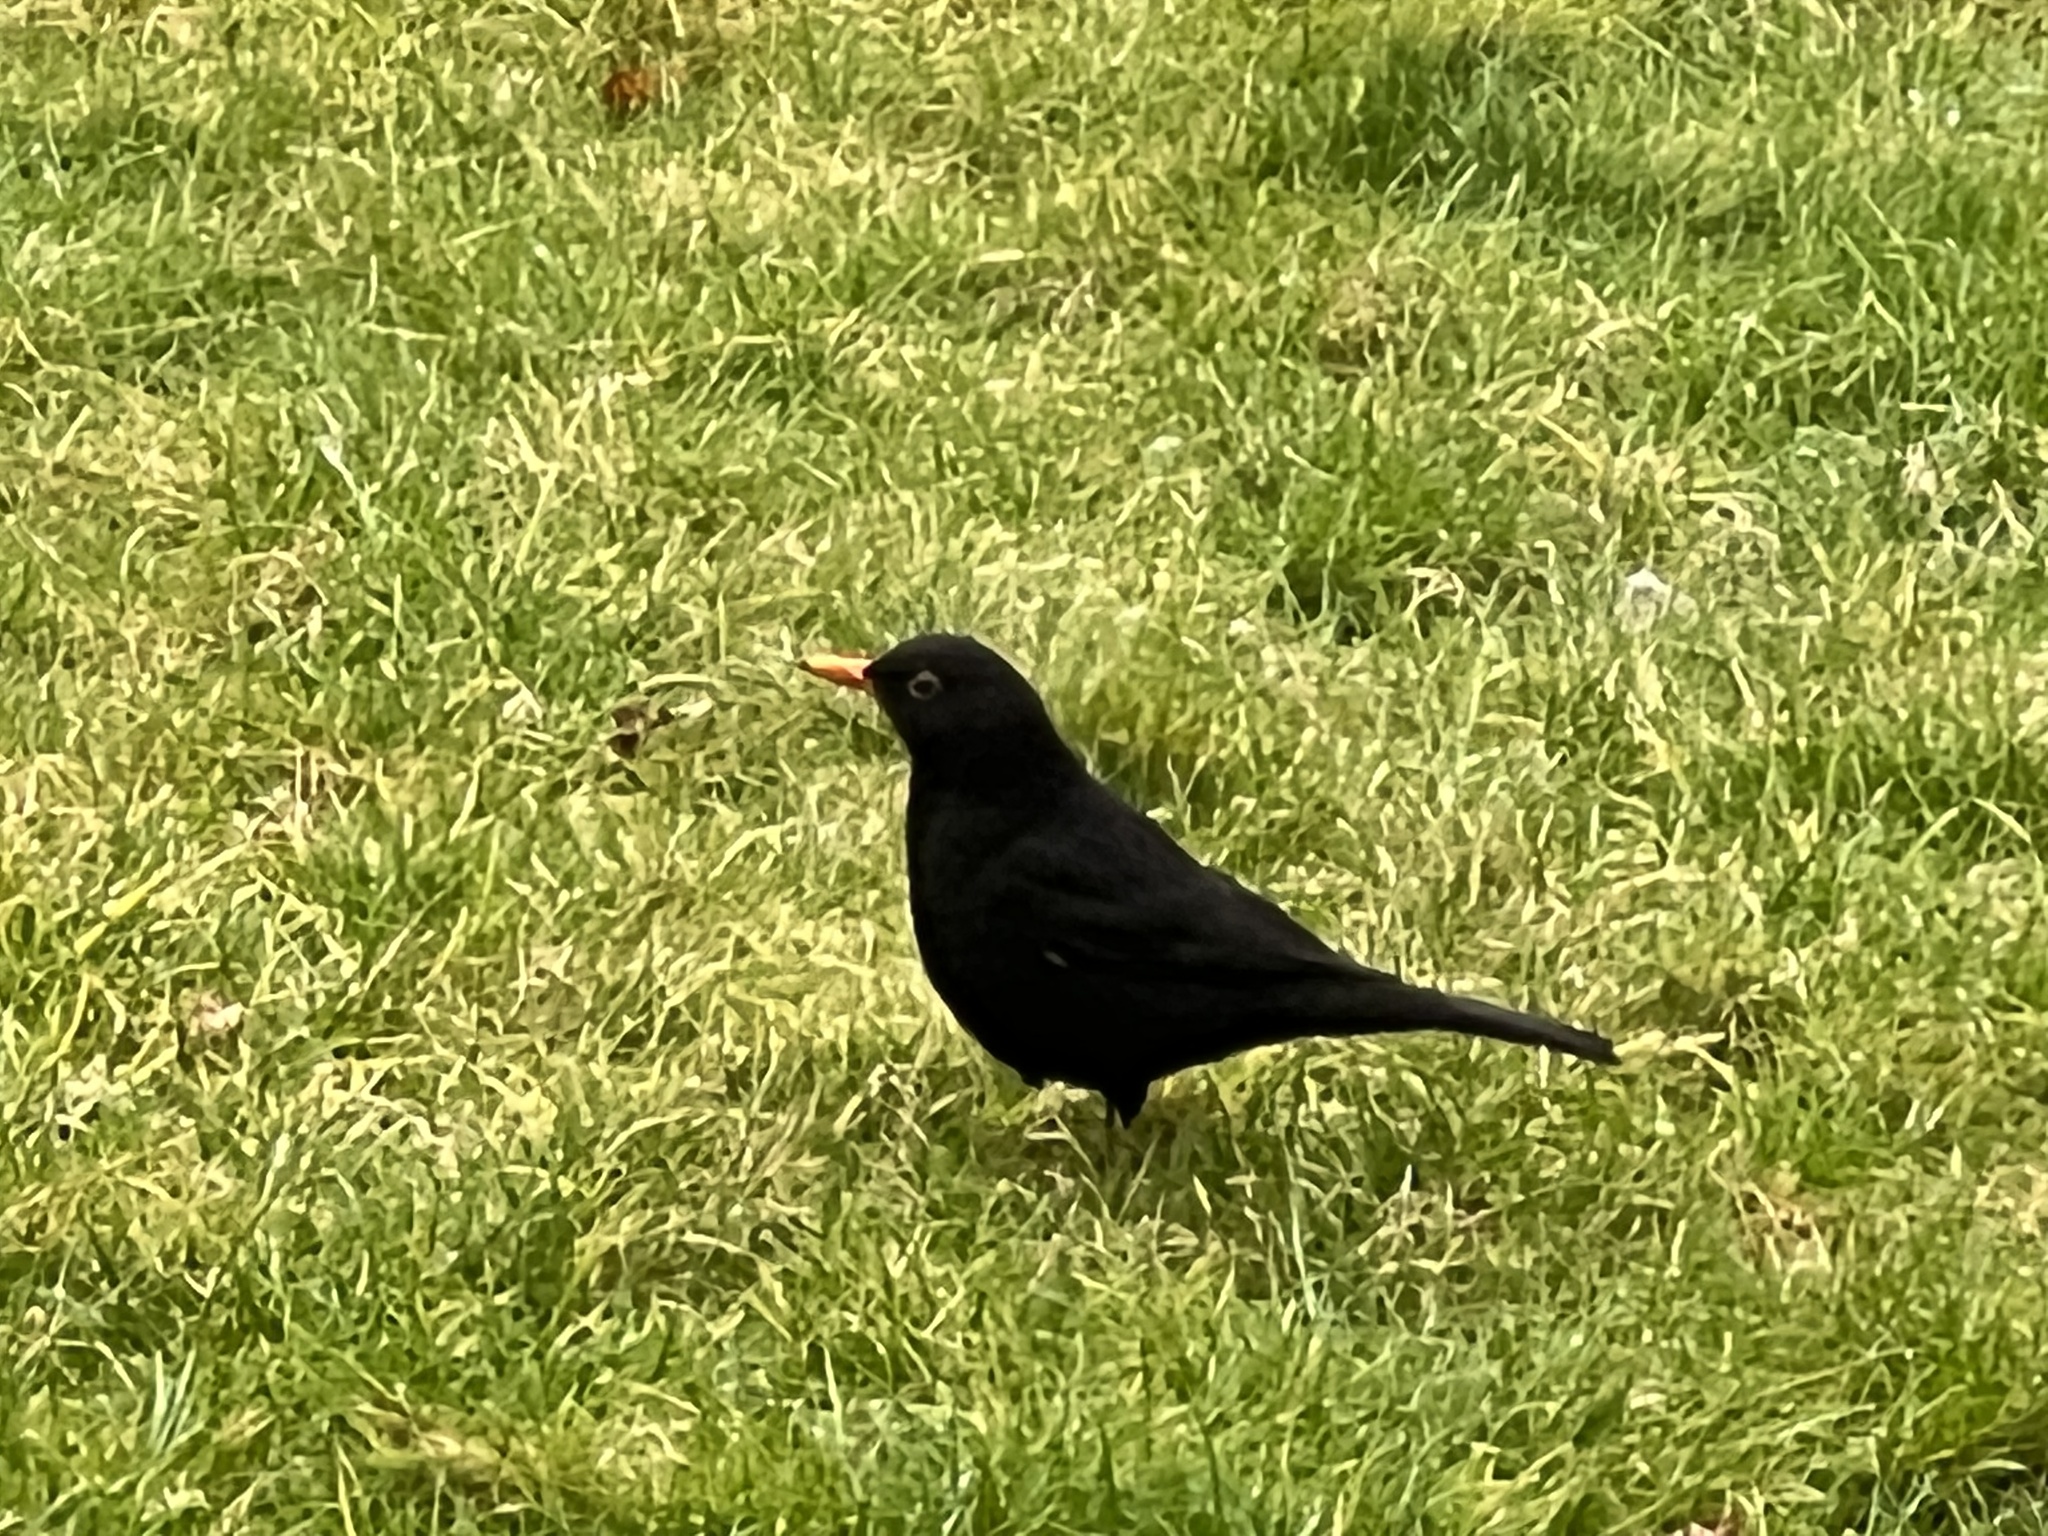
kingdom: Animalia
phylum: Chordata
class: Aves
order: Passeriformes
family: Turdidae
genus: Turdus
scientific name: Turdus merula
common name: Common blackbird
